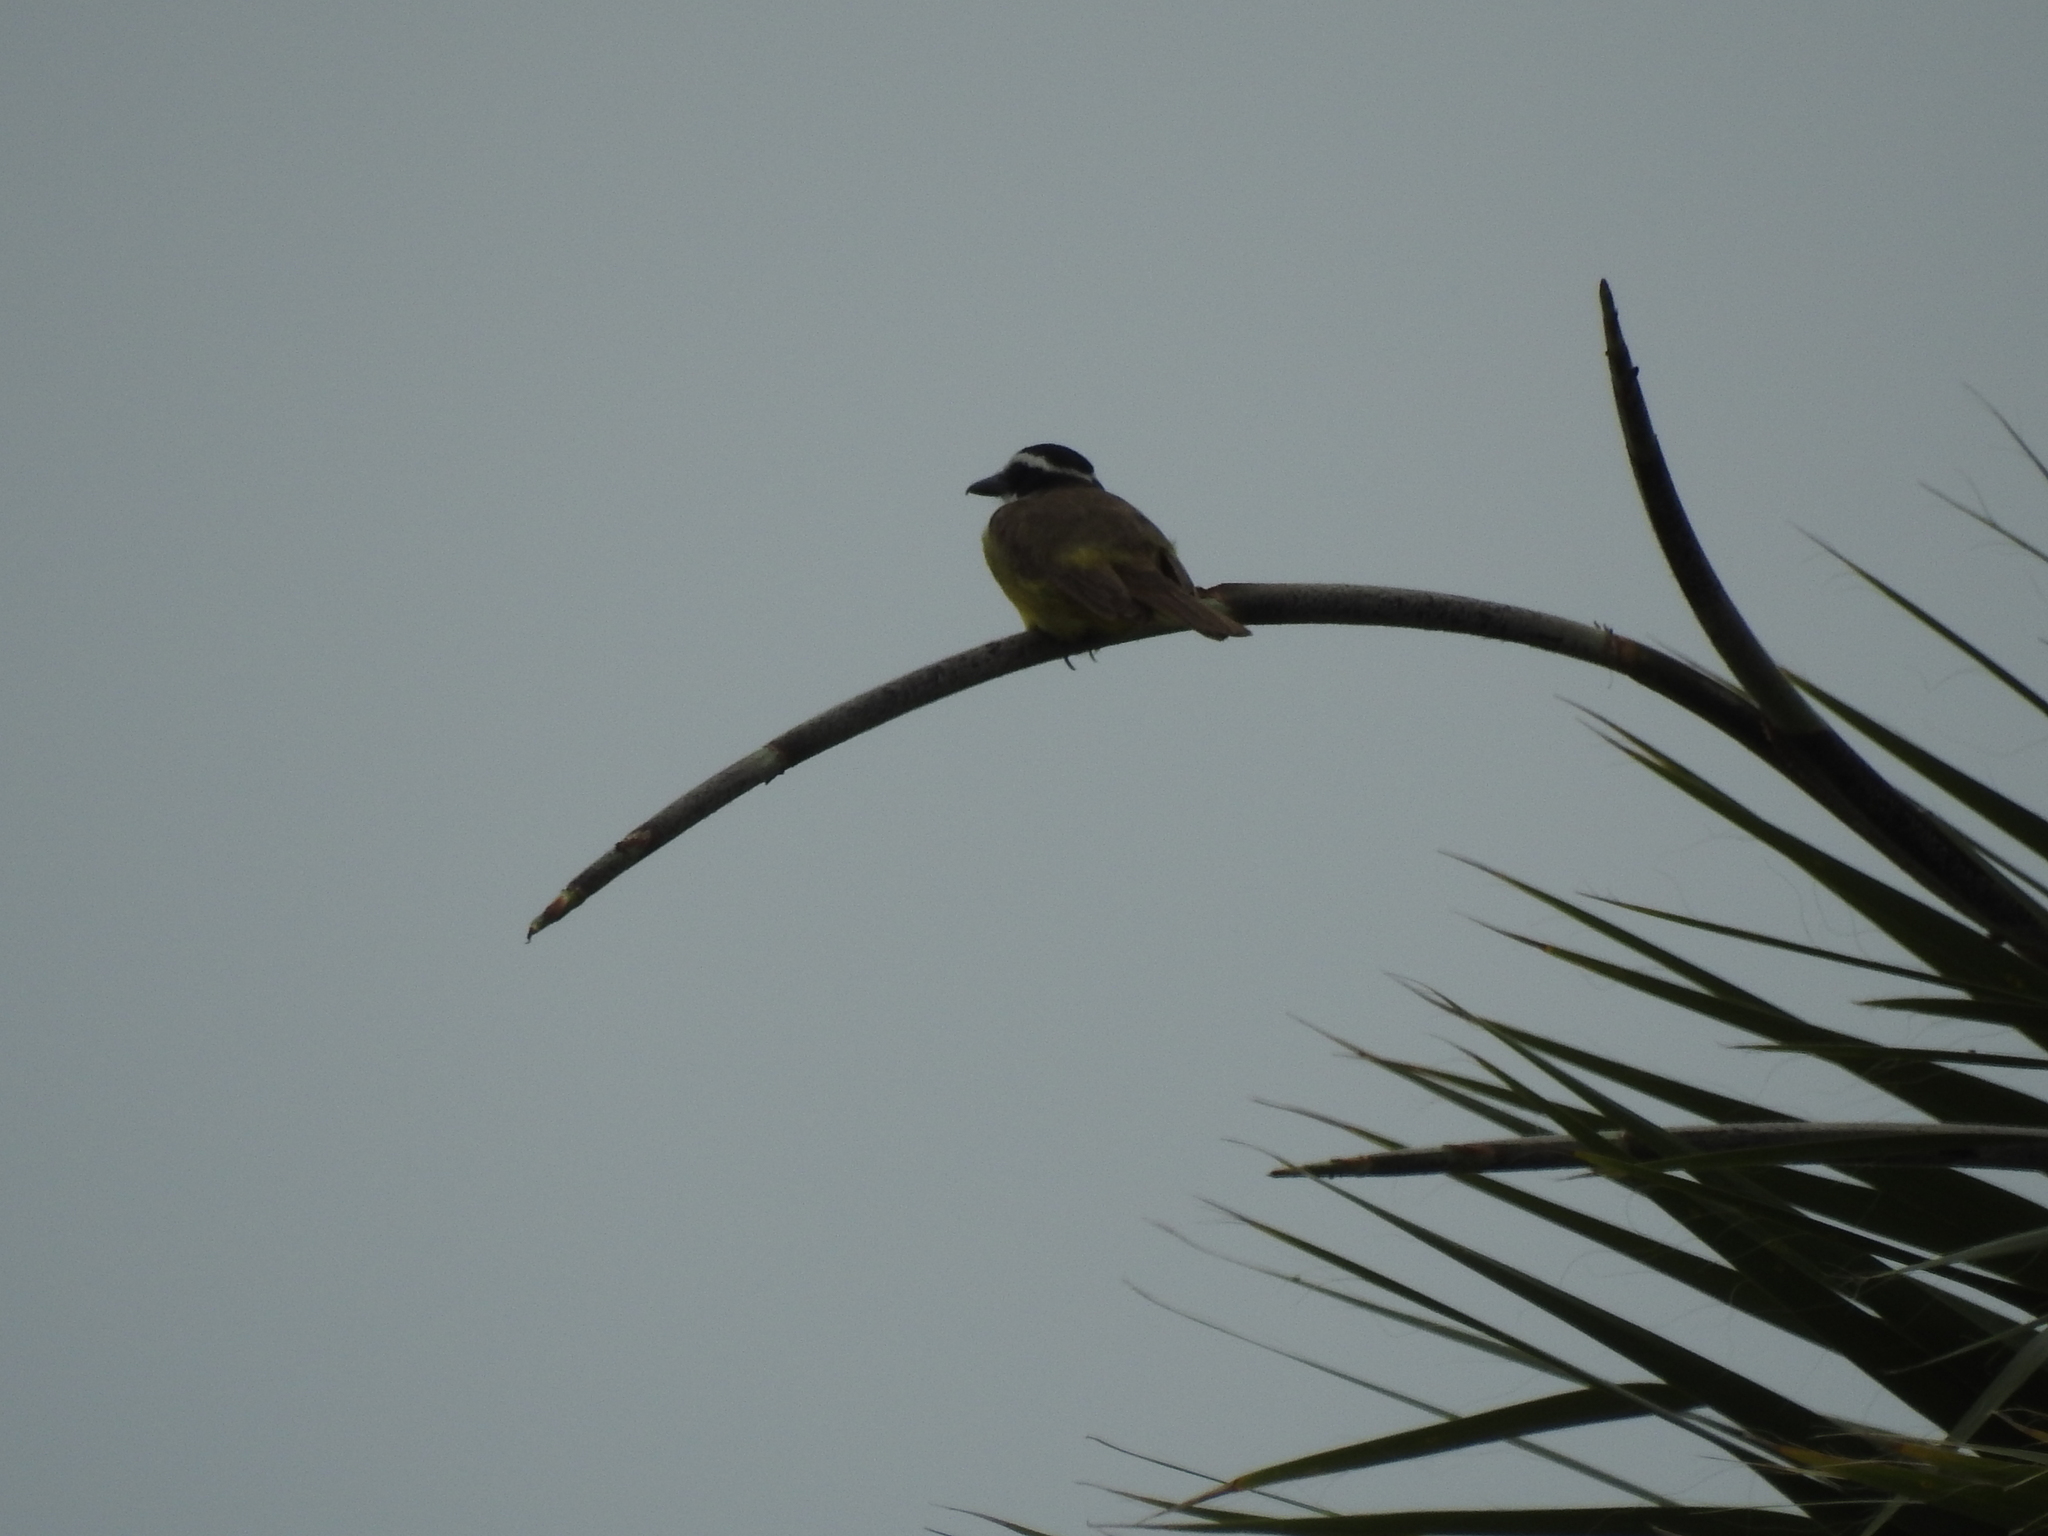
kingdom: Animalia
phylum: Chordata
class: Aves
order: Passeriformes
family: Tyrannidae
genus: Pitangus
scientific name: Pitangus sulphuratus
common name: Great kiskadee
